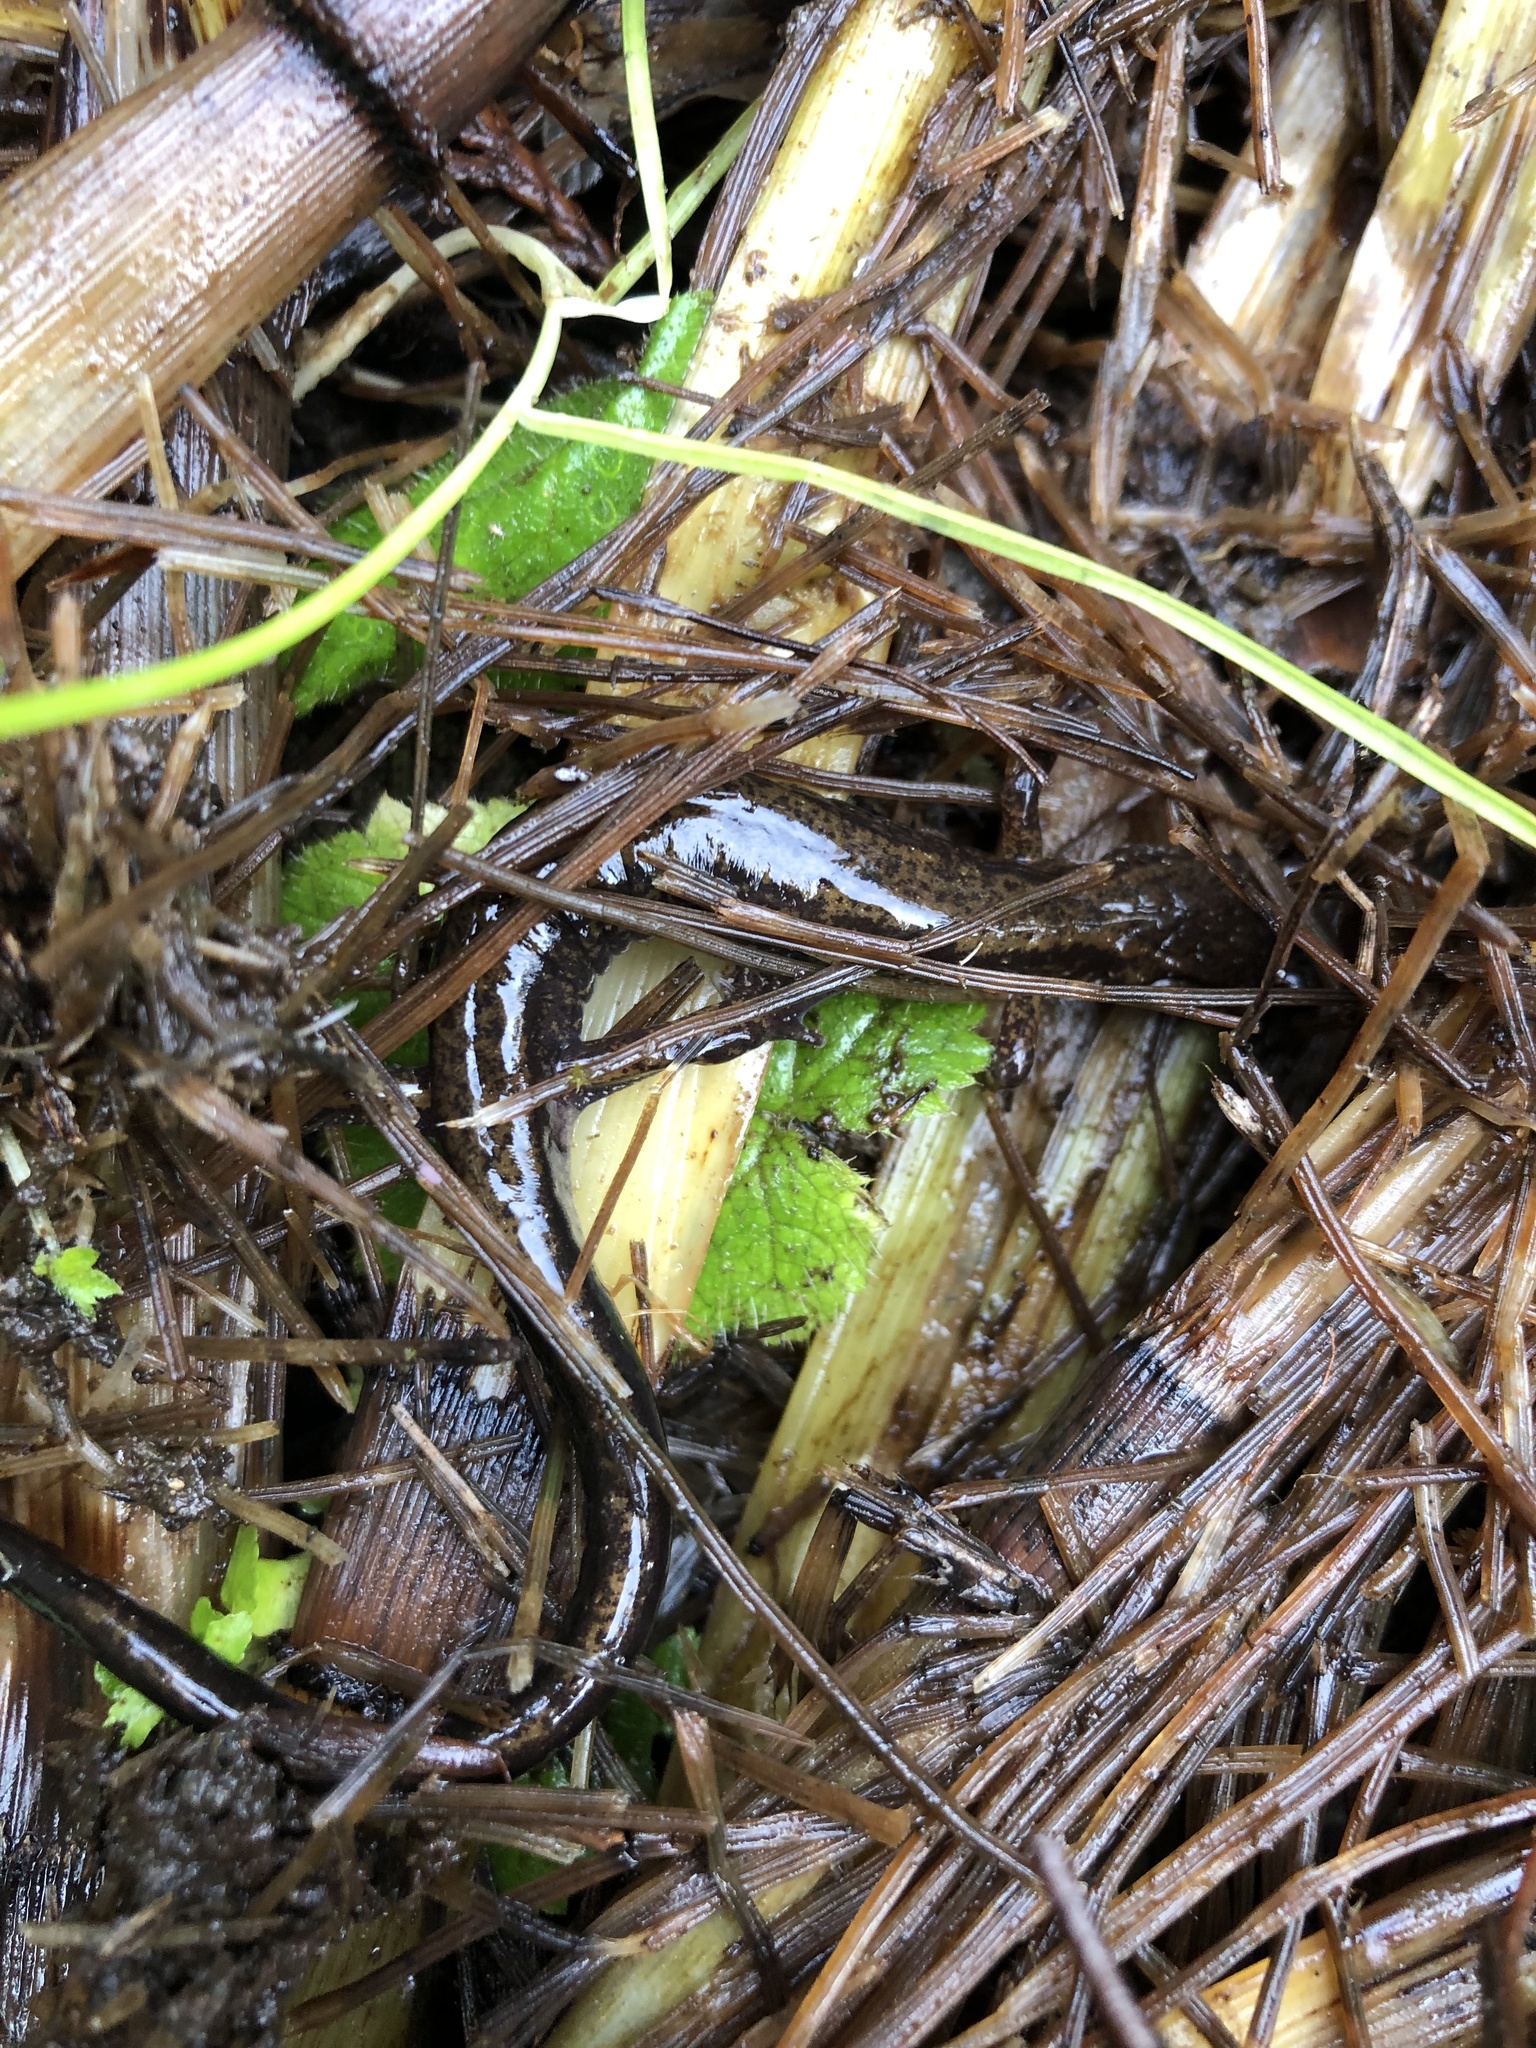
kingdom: Animalia
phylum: Chordata
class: Amphibia
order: Caudata
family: Plethodontidae
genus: Plethodon
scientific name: Plethodon dunni
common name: Dunn's salamander
